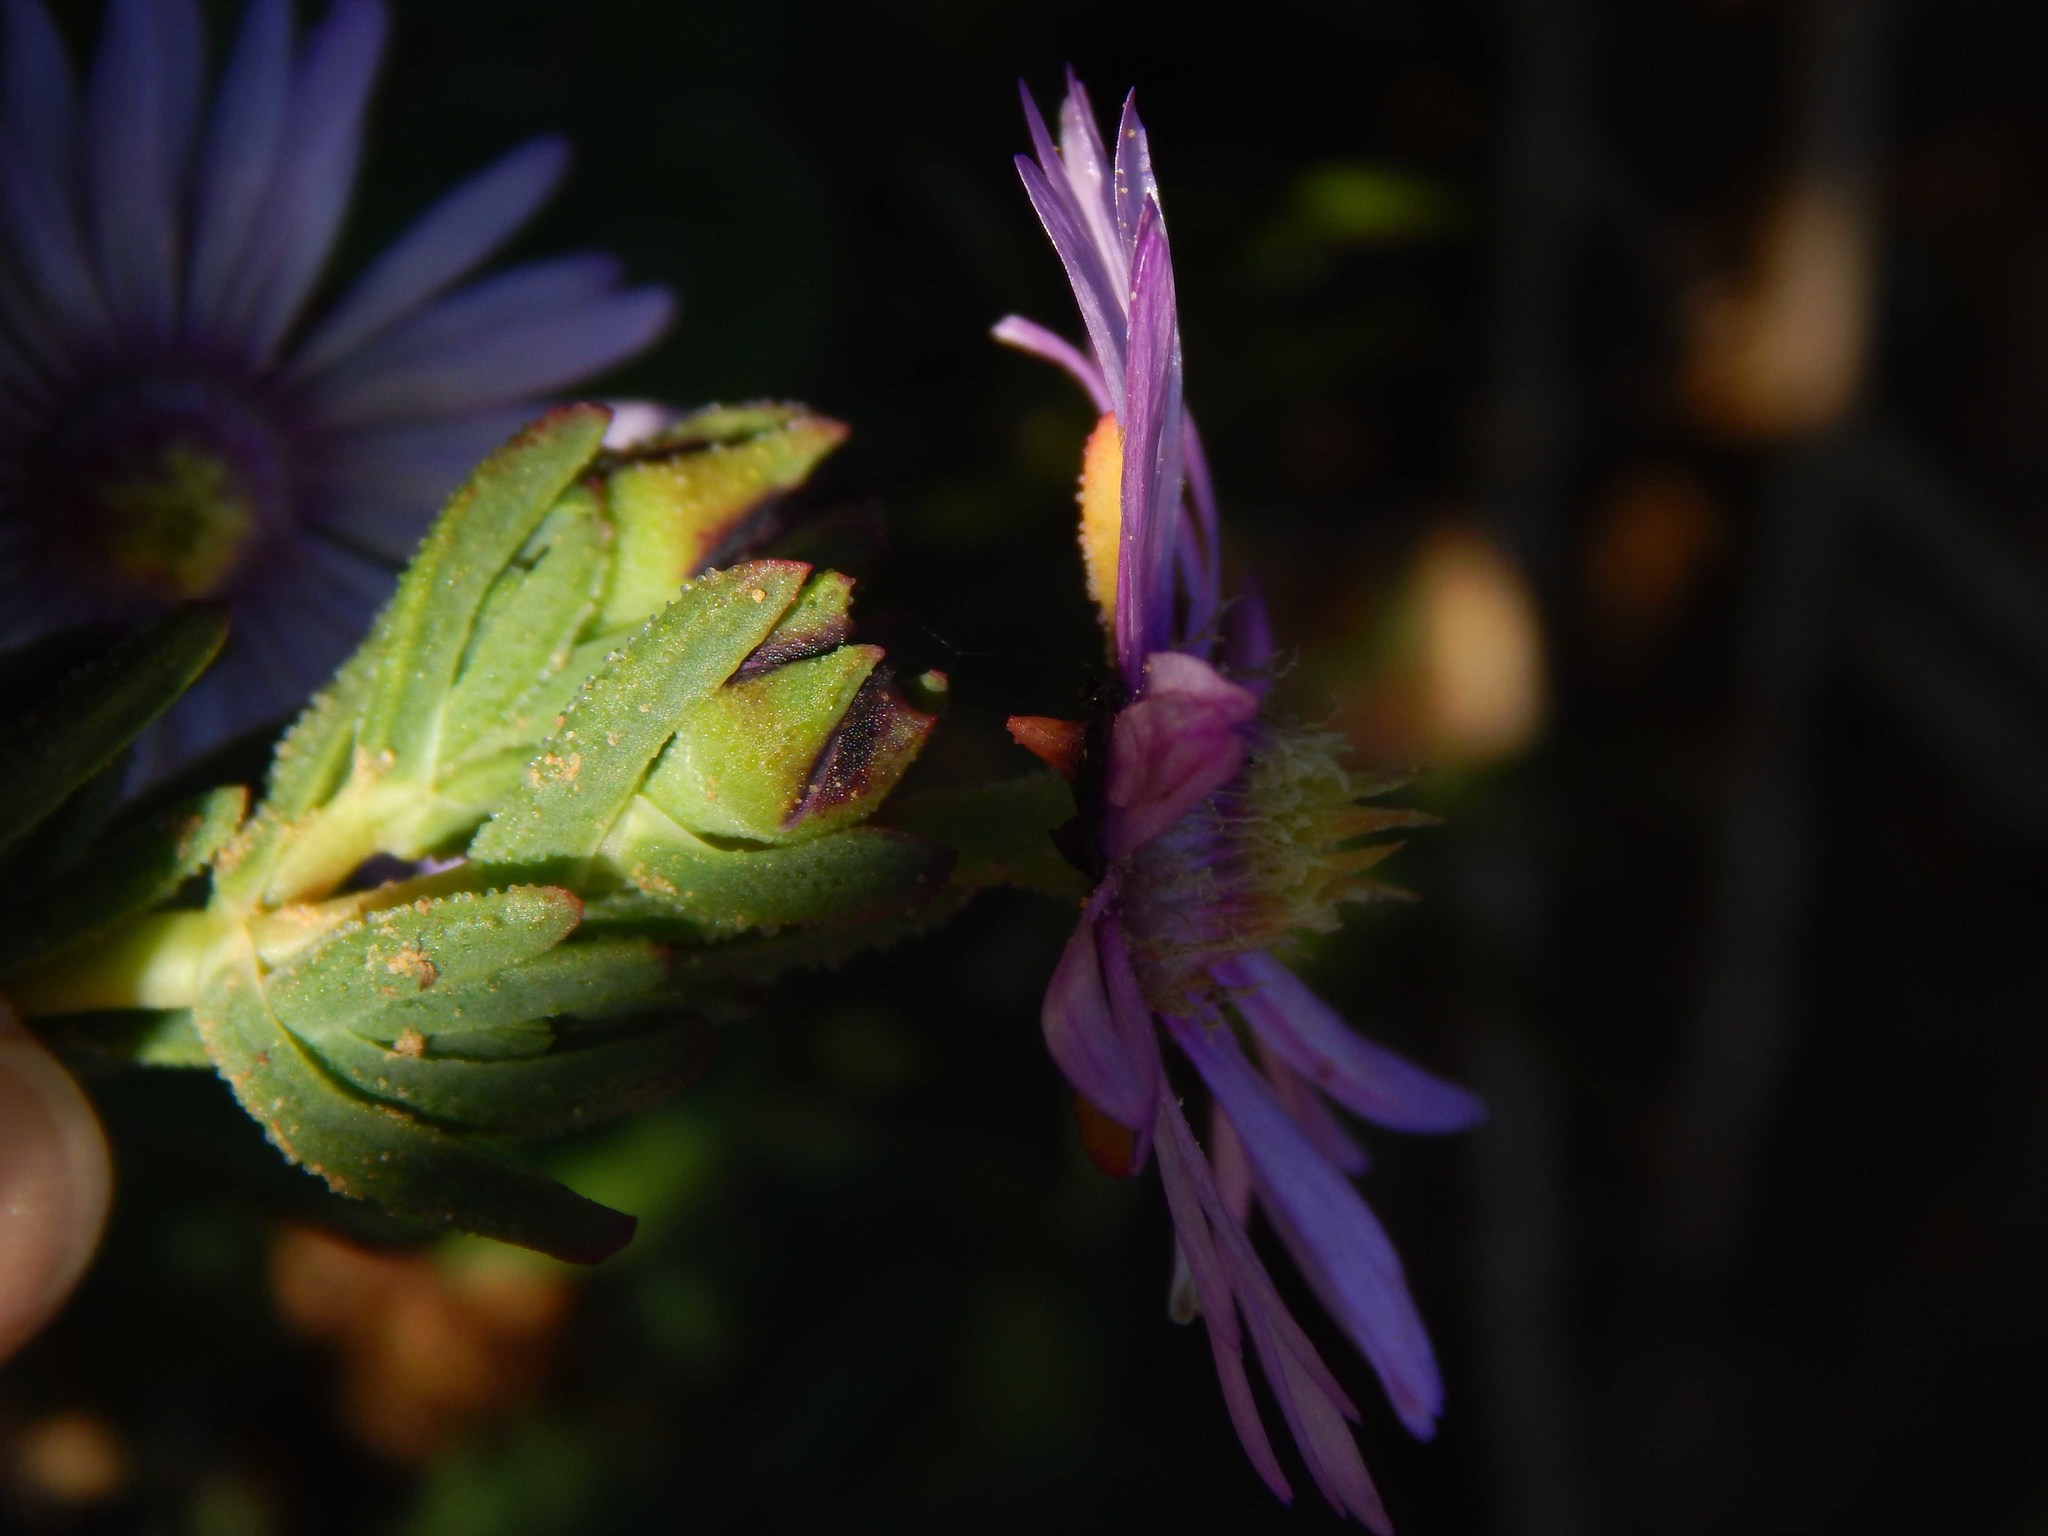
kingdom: Plantae
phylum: Tracheophyta
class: Magnoliopsida
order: Caryophyllales
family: Aizoaceae
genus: Lampranthus
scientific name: Lampranthus leptaleon
